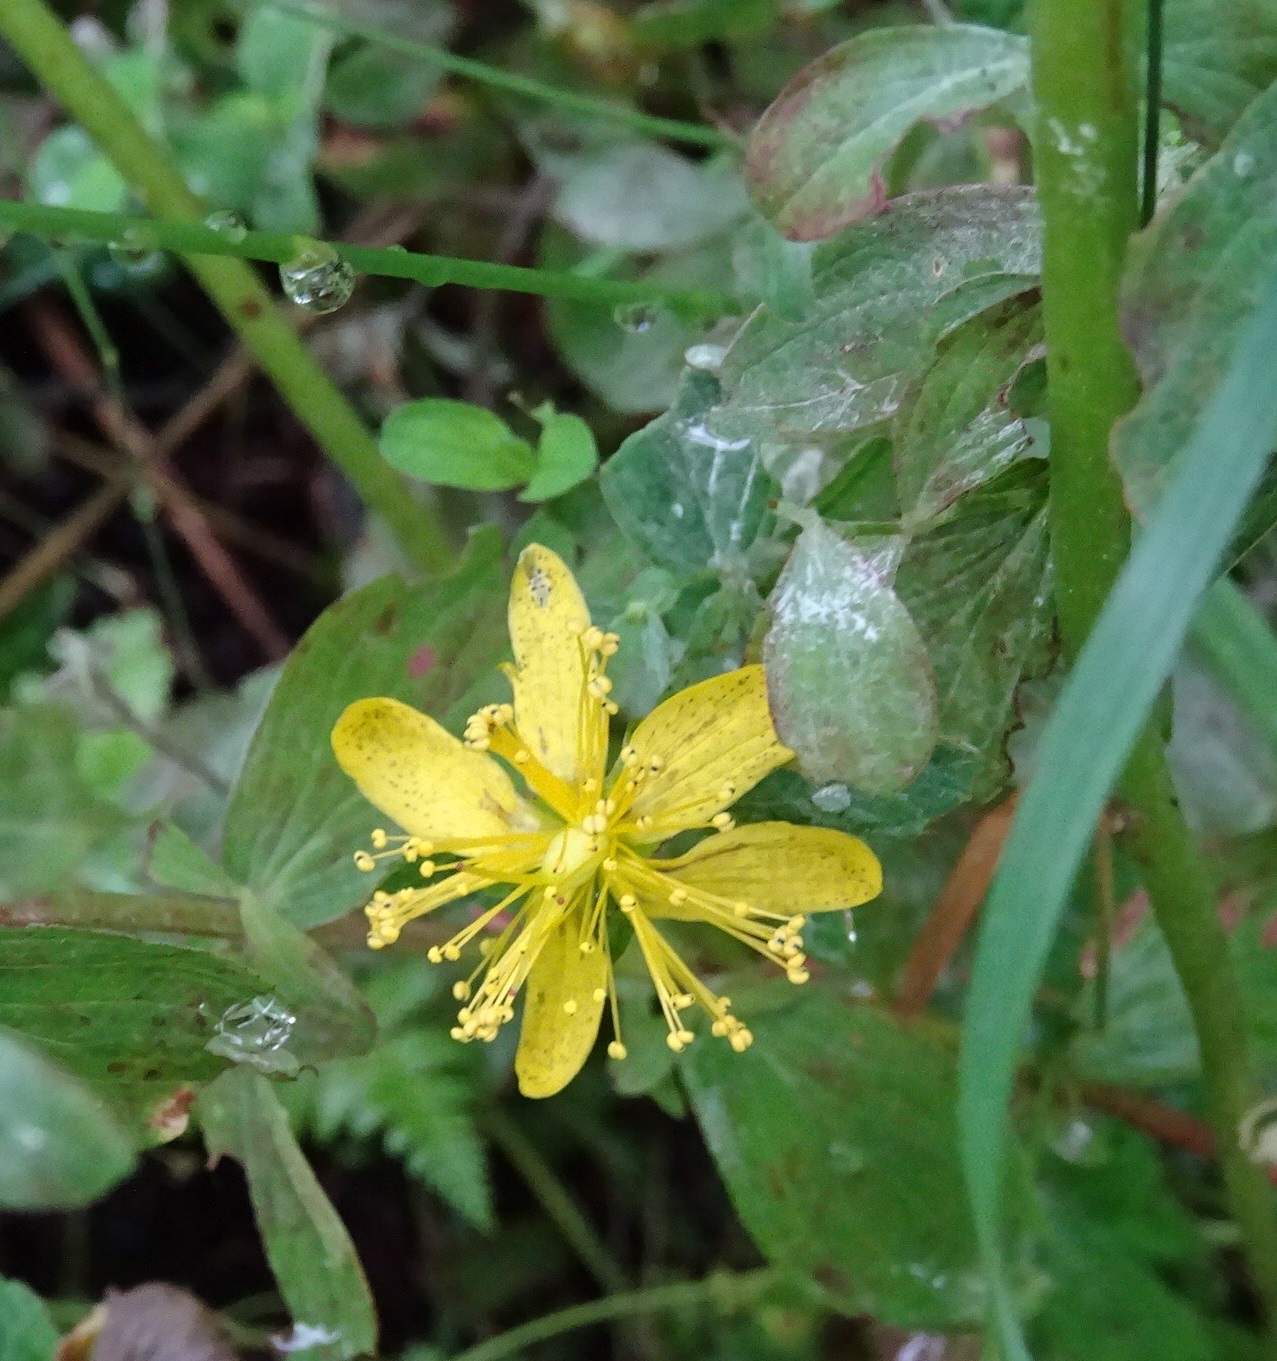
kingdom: Plantae
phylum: Tracheophyta
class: Magnoliopsida
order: Malpighiales
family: Hypericaceae
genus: Hypericum
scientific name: Hypericum maculatum
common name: Imperforate st. john's-wort
